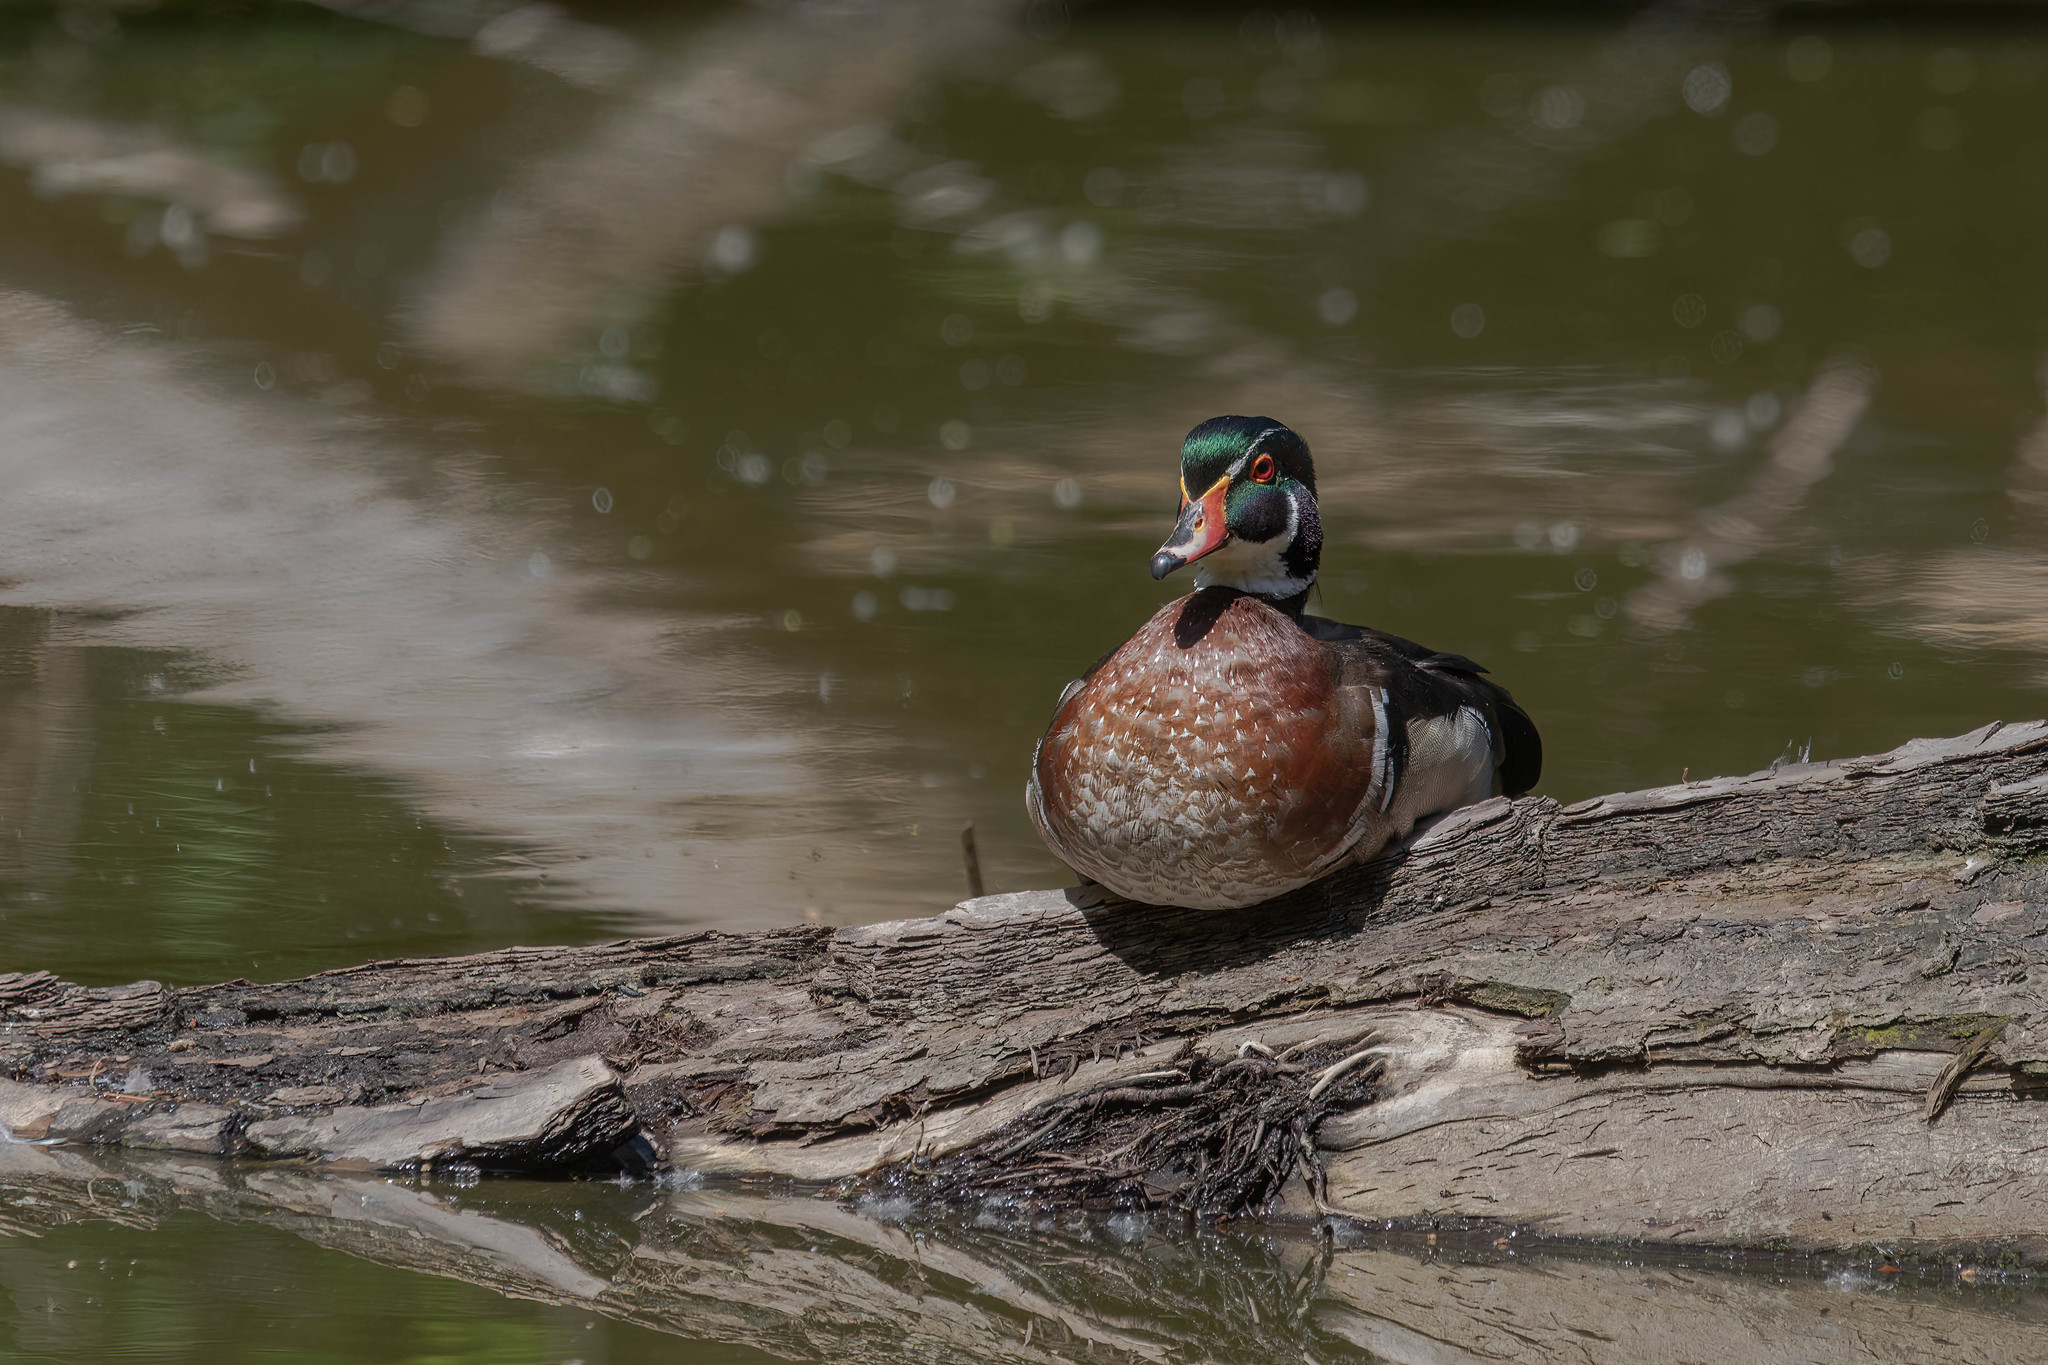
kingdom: Animalia
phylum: Chordata
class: Aves
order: Anseriformes
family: Anatidae
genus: Aix
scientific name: Aix sponsa
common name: Wood duck
